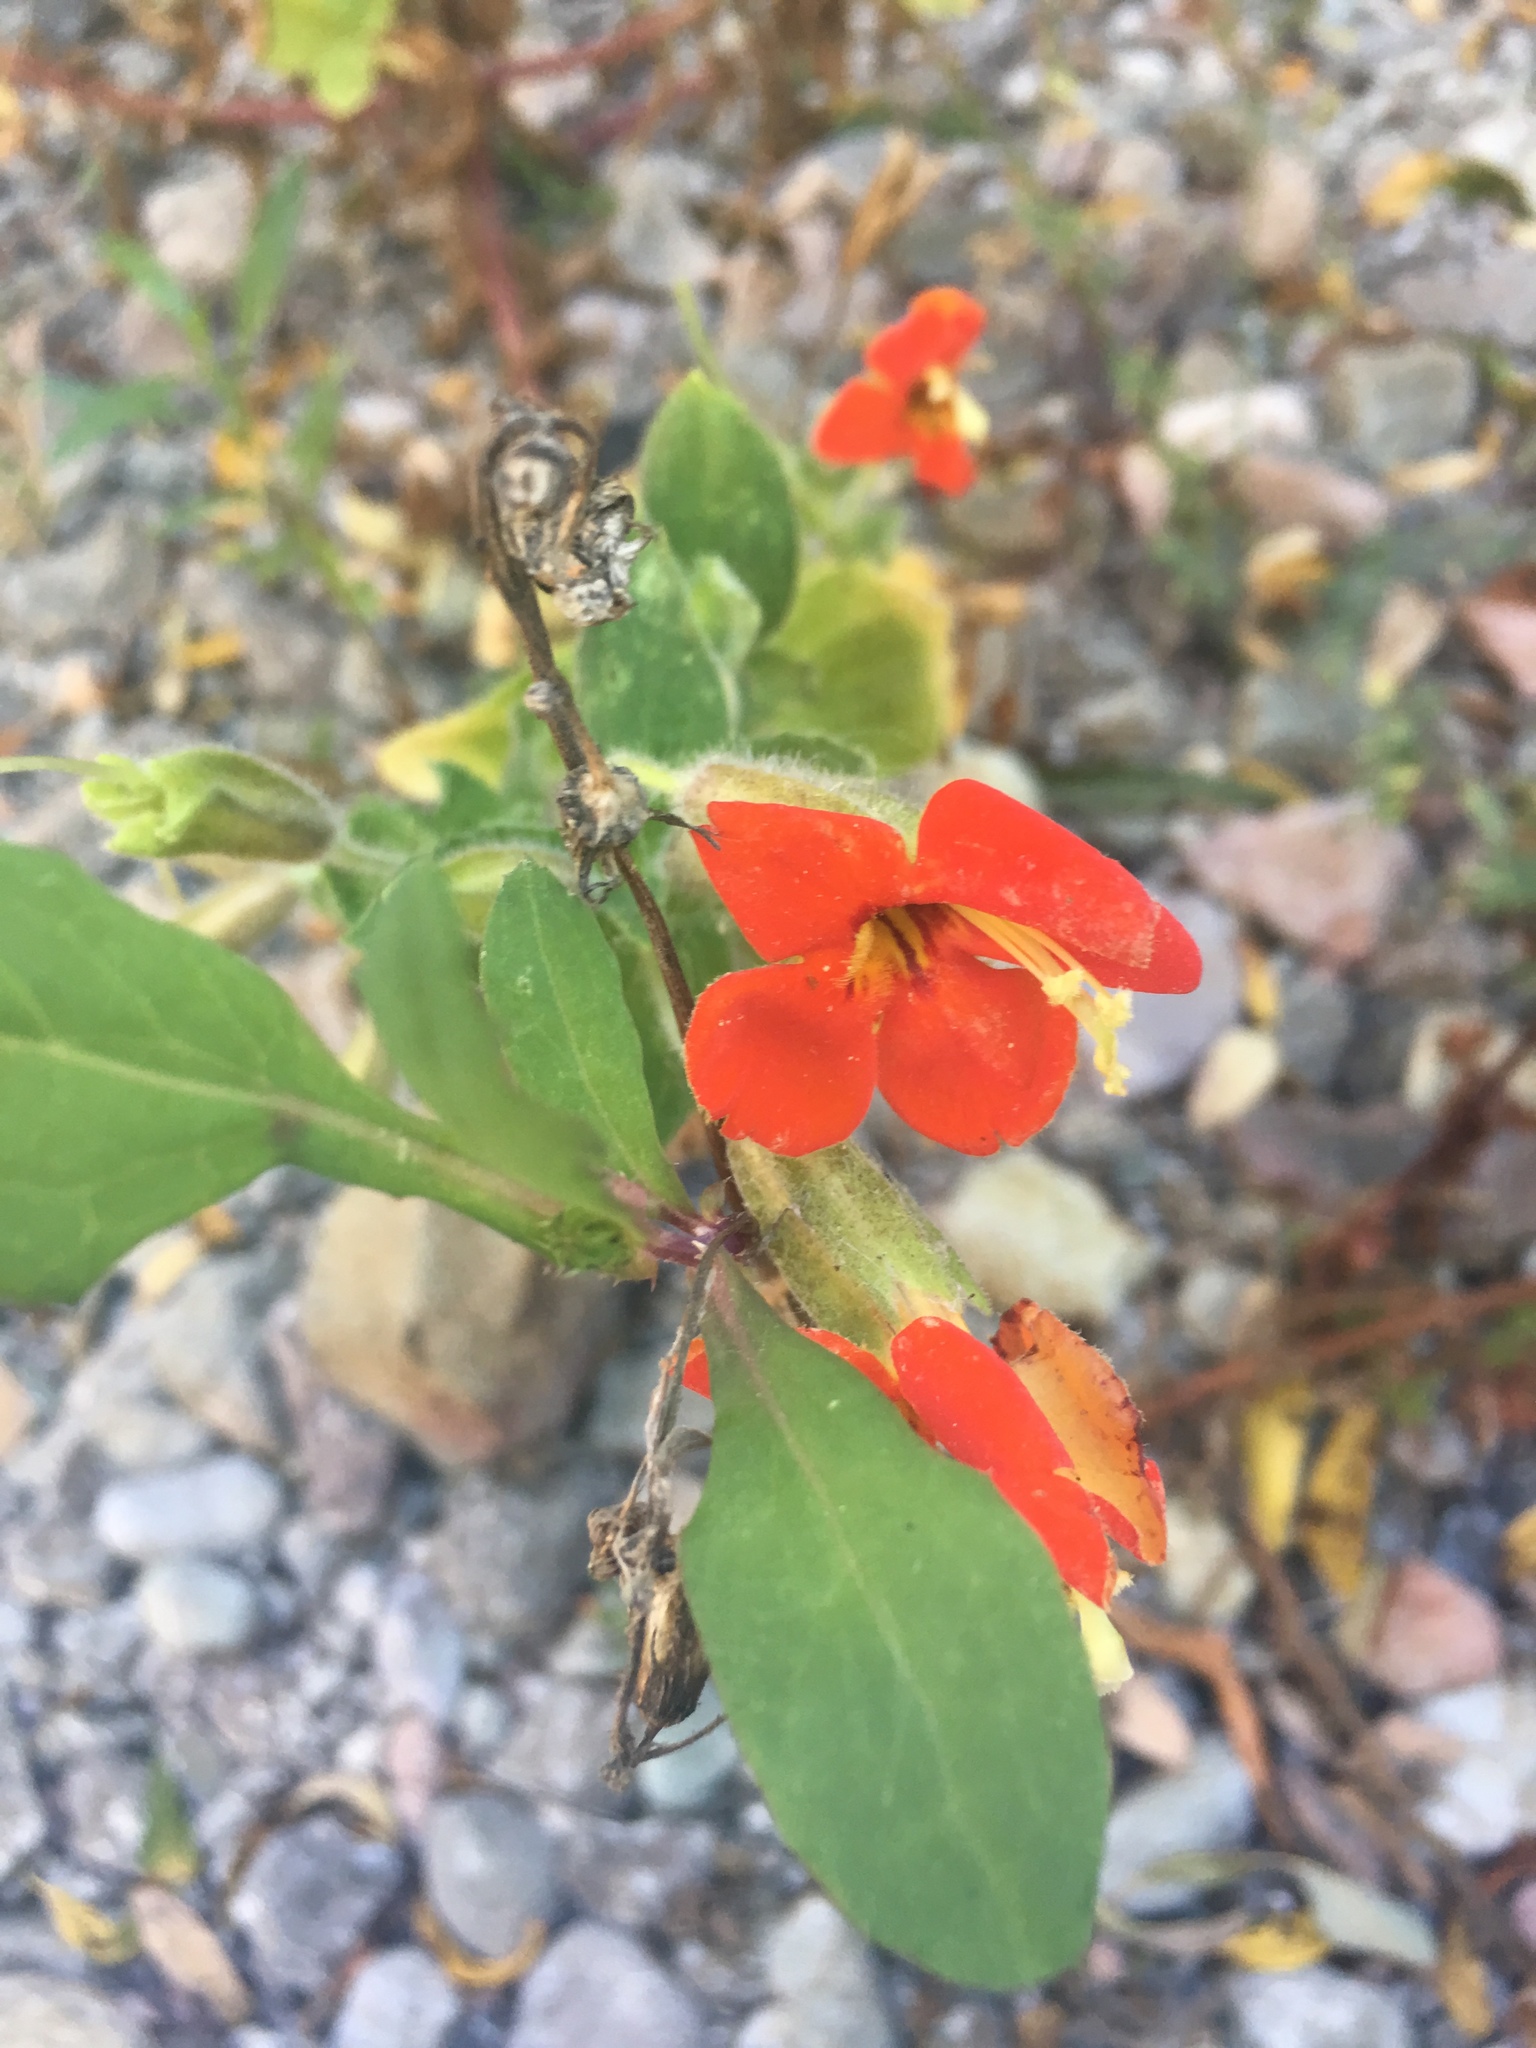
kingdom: Plantae
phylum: Tracheophyta
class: Magnoliopsida
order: Lamiales
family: Phrymaceae
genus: Erythranthe
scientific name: Erythranthe cardinalis
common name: Scarlet monkey-flower
